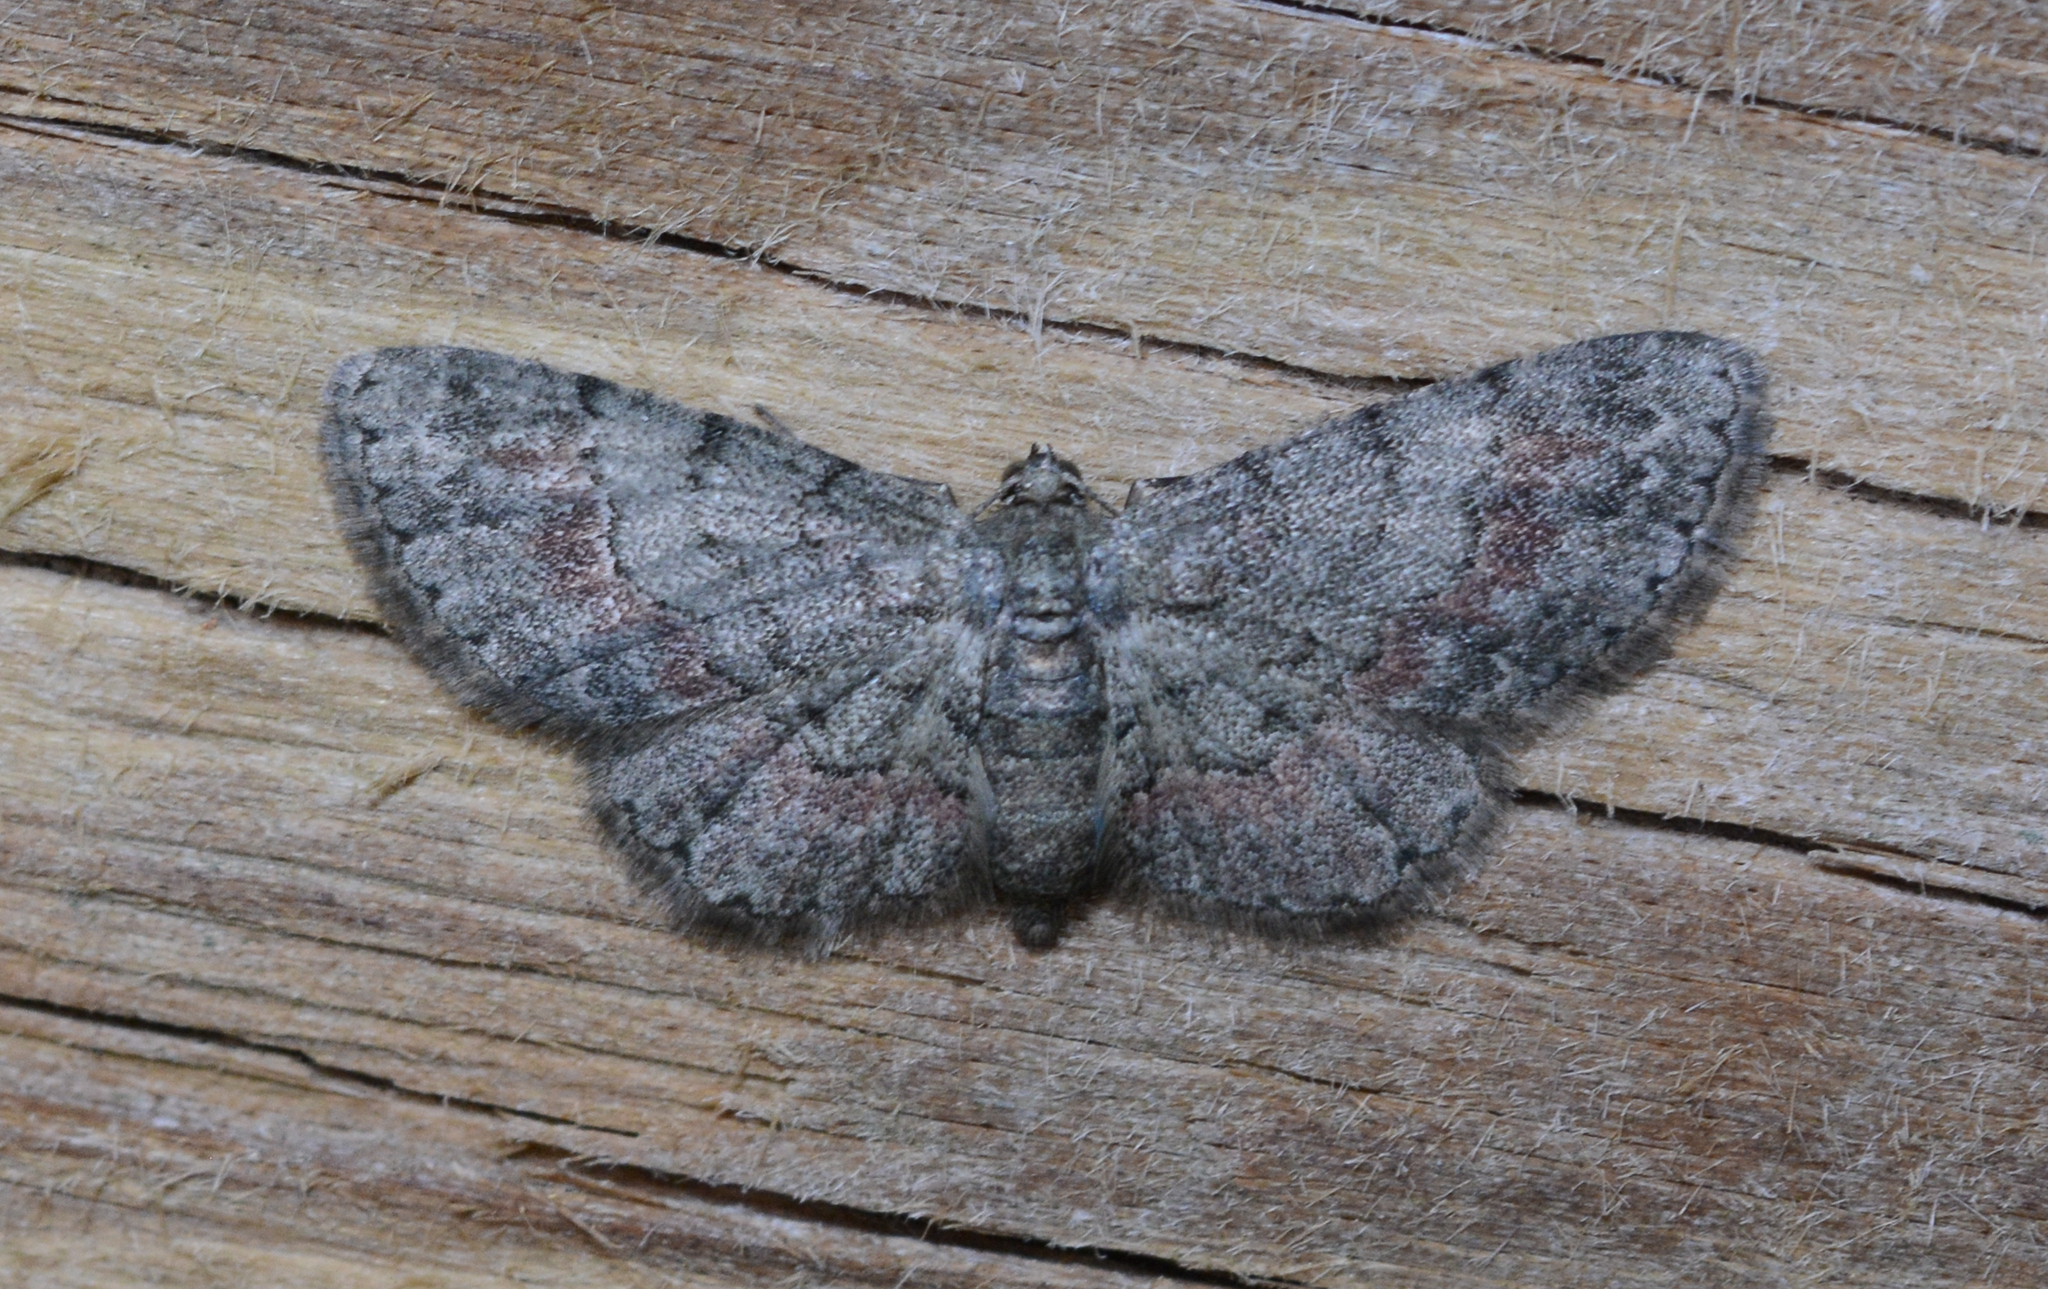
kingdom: Animalia
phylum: Arthropoda
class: Insecta
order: Lepidoptera
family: Geometridae
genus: Glenoides
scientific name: Glenoides texanaria
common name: Texas gray
